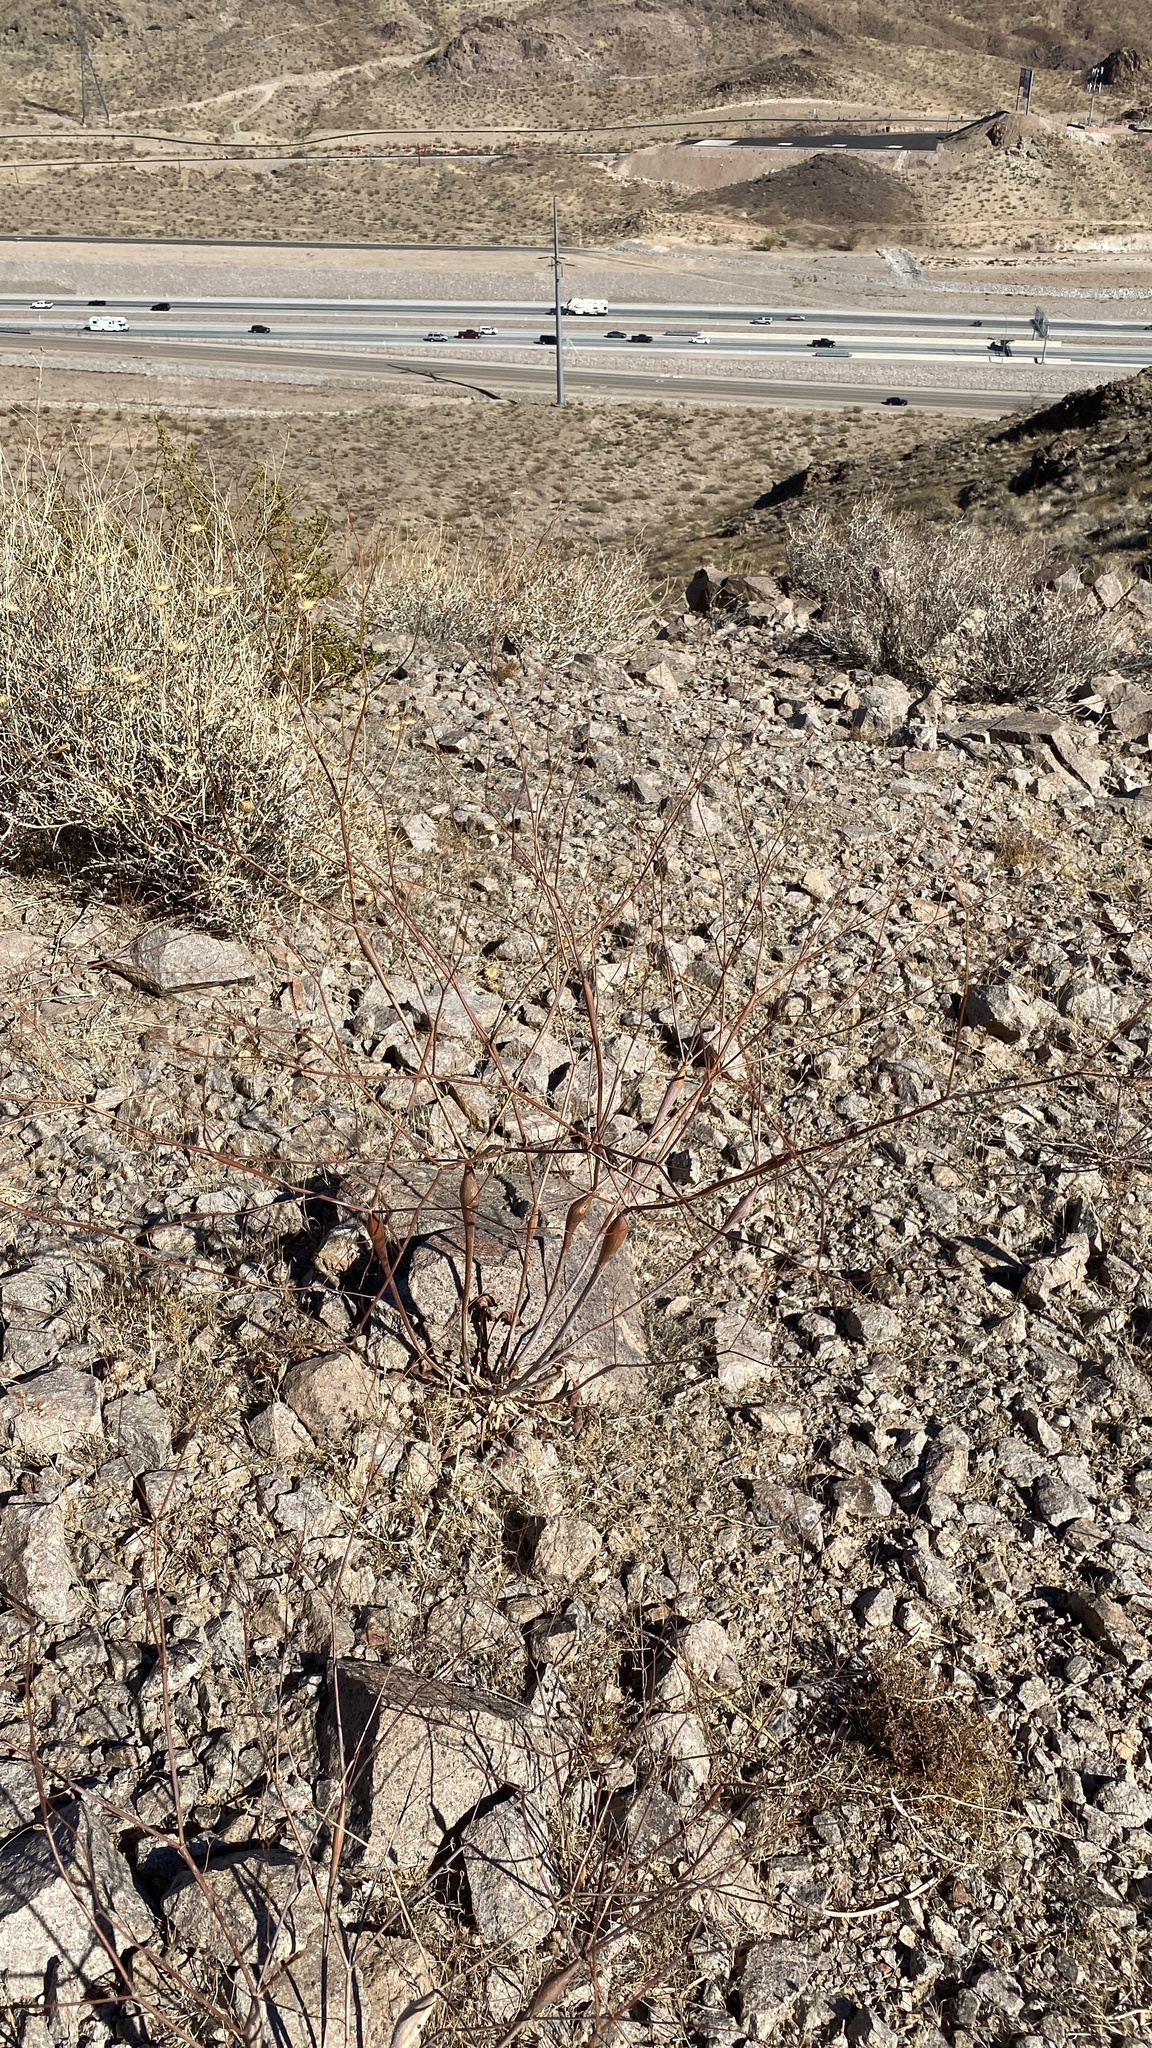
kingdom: Plantae
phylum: Tracheophyta
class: Magnoliopsida
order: Caryophyllales
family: Polygonaceae
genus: Eriogonum
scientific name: Eriogonum inflatum
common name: Desert trumpet
